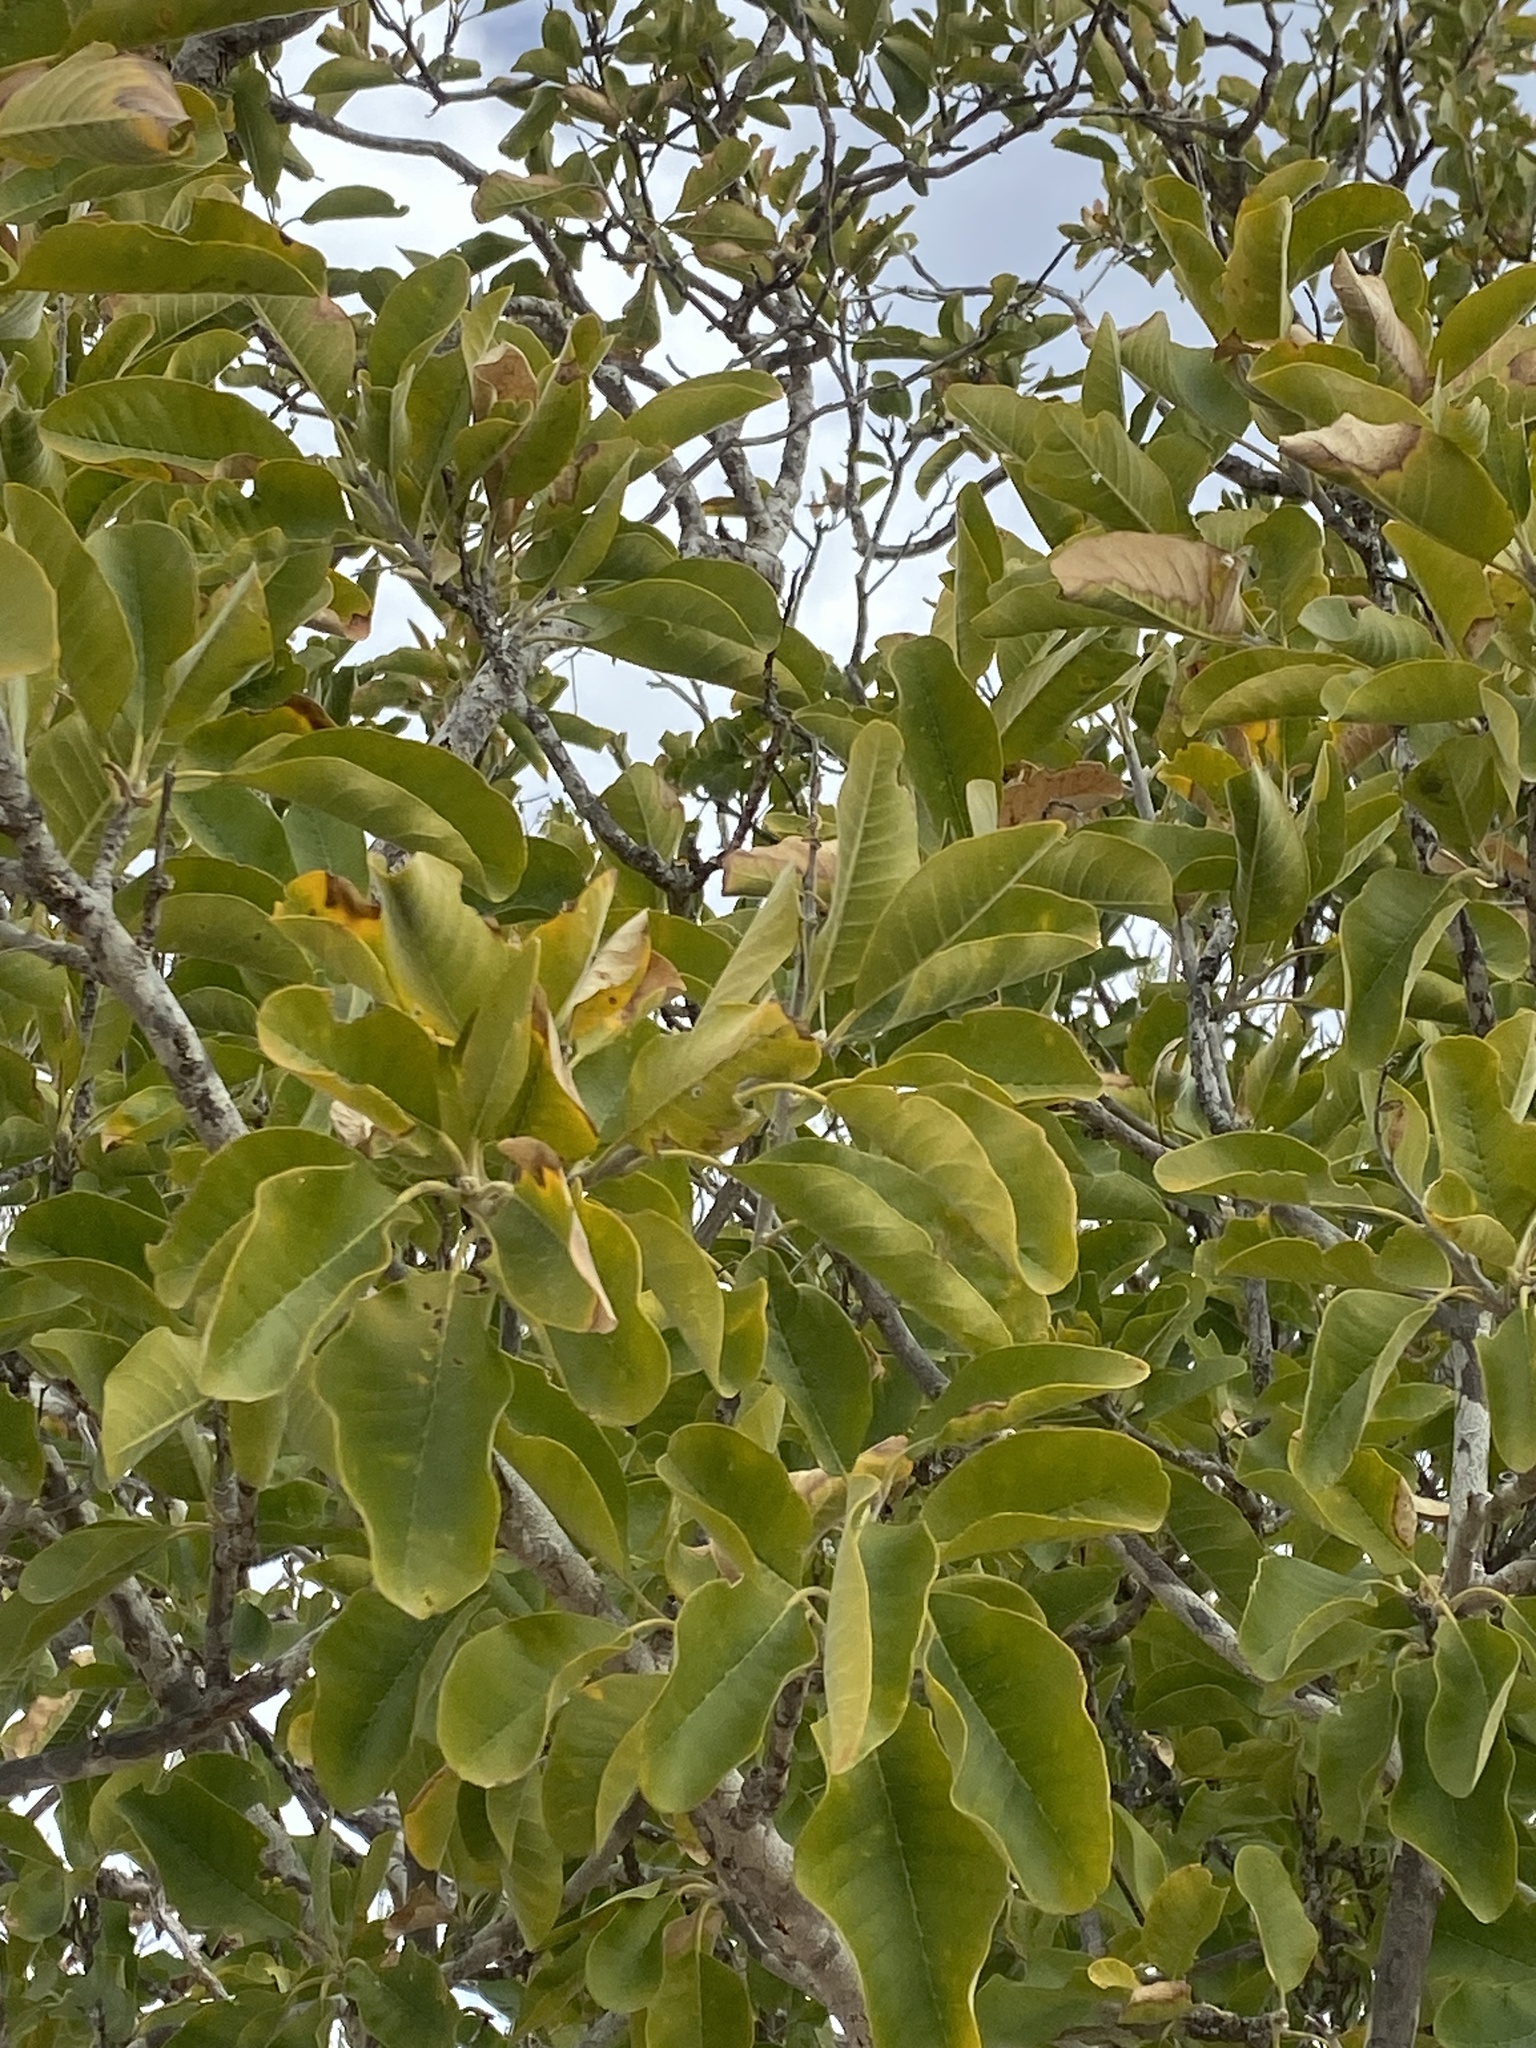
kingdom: Plantae
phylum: Tracheophyta
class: Magnoliopsida
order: Sapindales
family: Rutaceae
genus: Esenbeckia
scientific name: Esenbeckia flava
